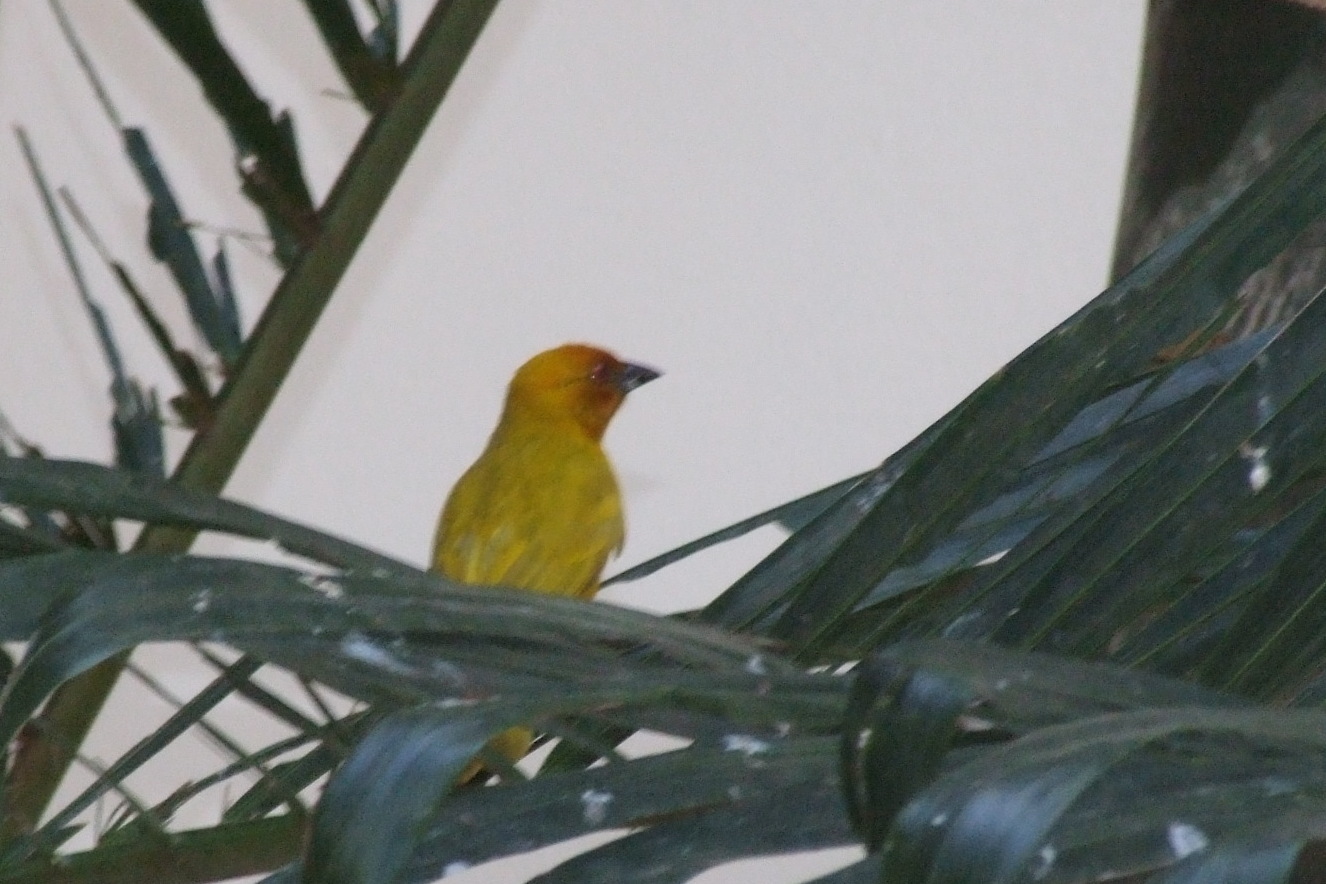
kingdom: Animalia
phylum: Chordata
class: Aves
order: Passeriformes
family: Ploceidae
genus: Ploceus
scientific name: Ploceus subaureus
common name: Yellow weaver
